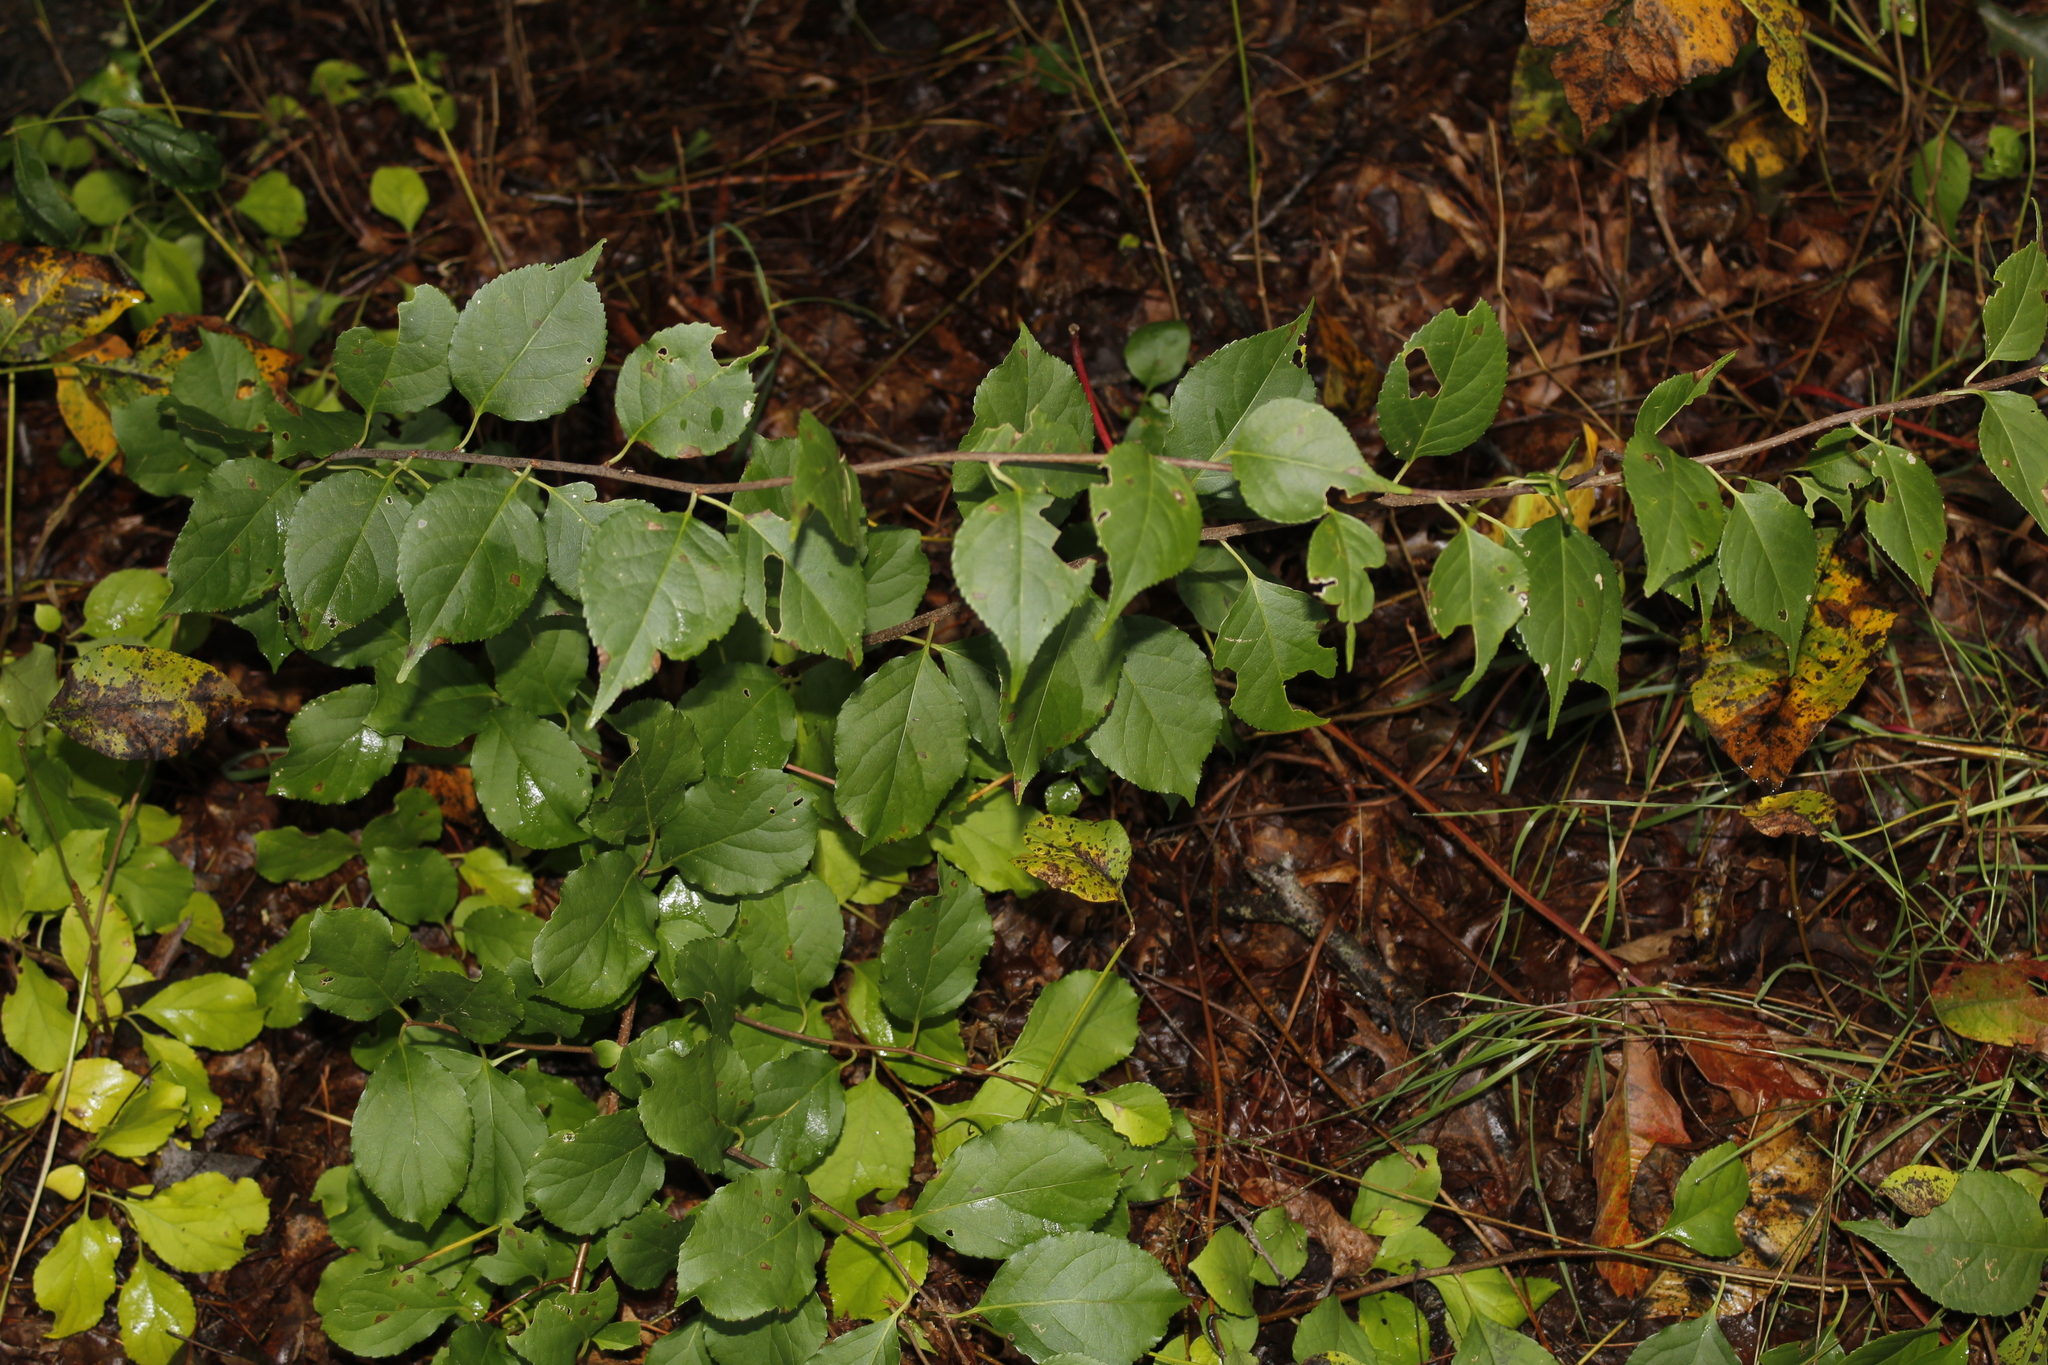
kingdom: Plantae
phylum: Tracheophyta
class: Magnoliopsida
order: Celastrales
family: Celastraceae
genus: Celastrus
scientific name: Celastrus orbiculatus
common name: Oriental bittersweet
